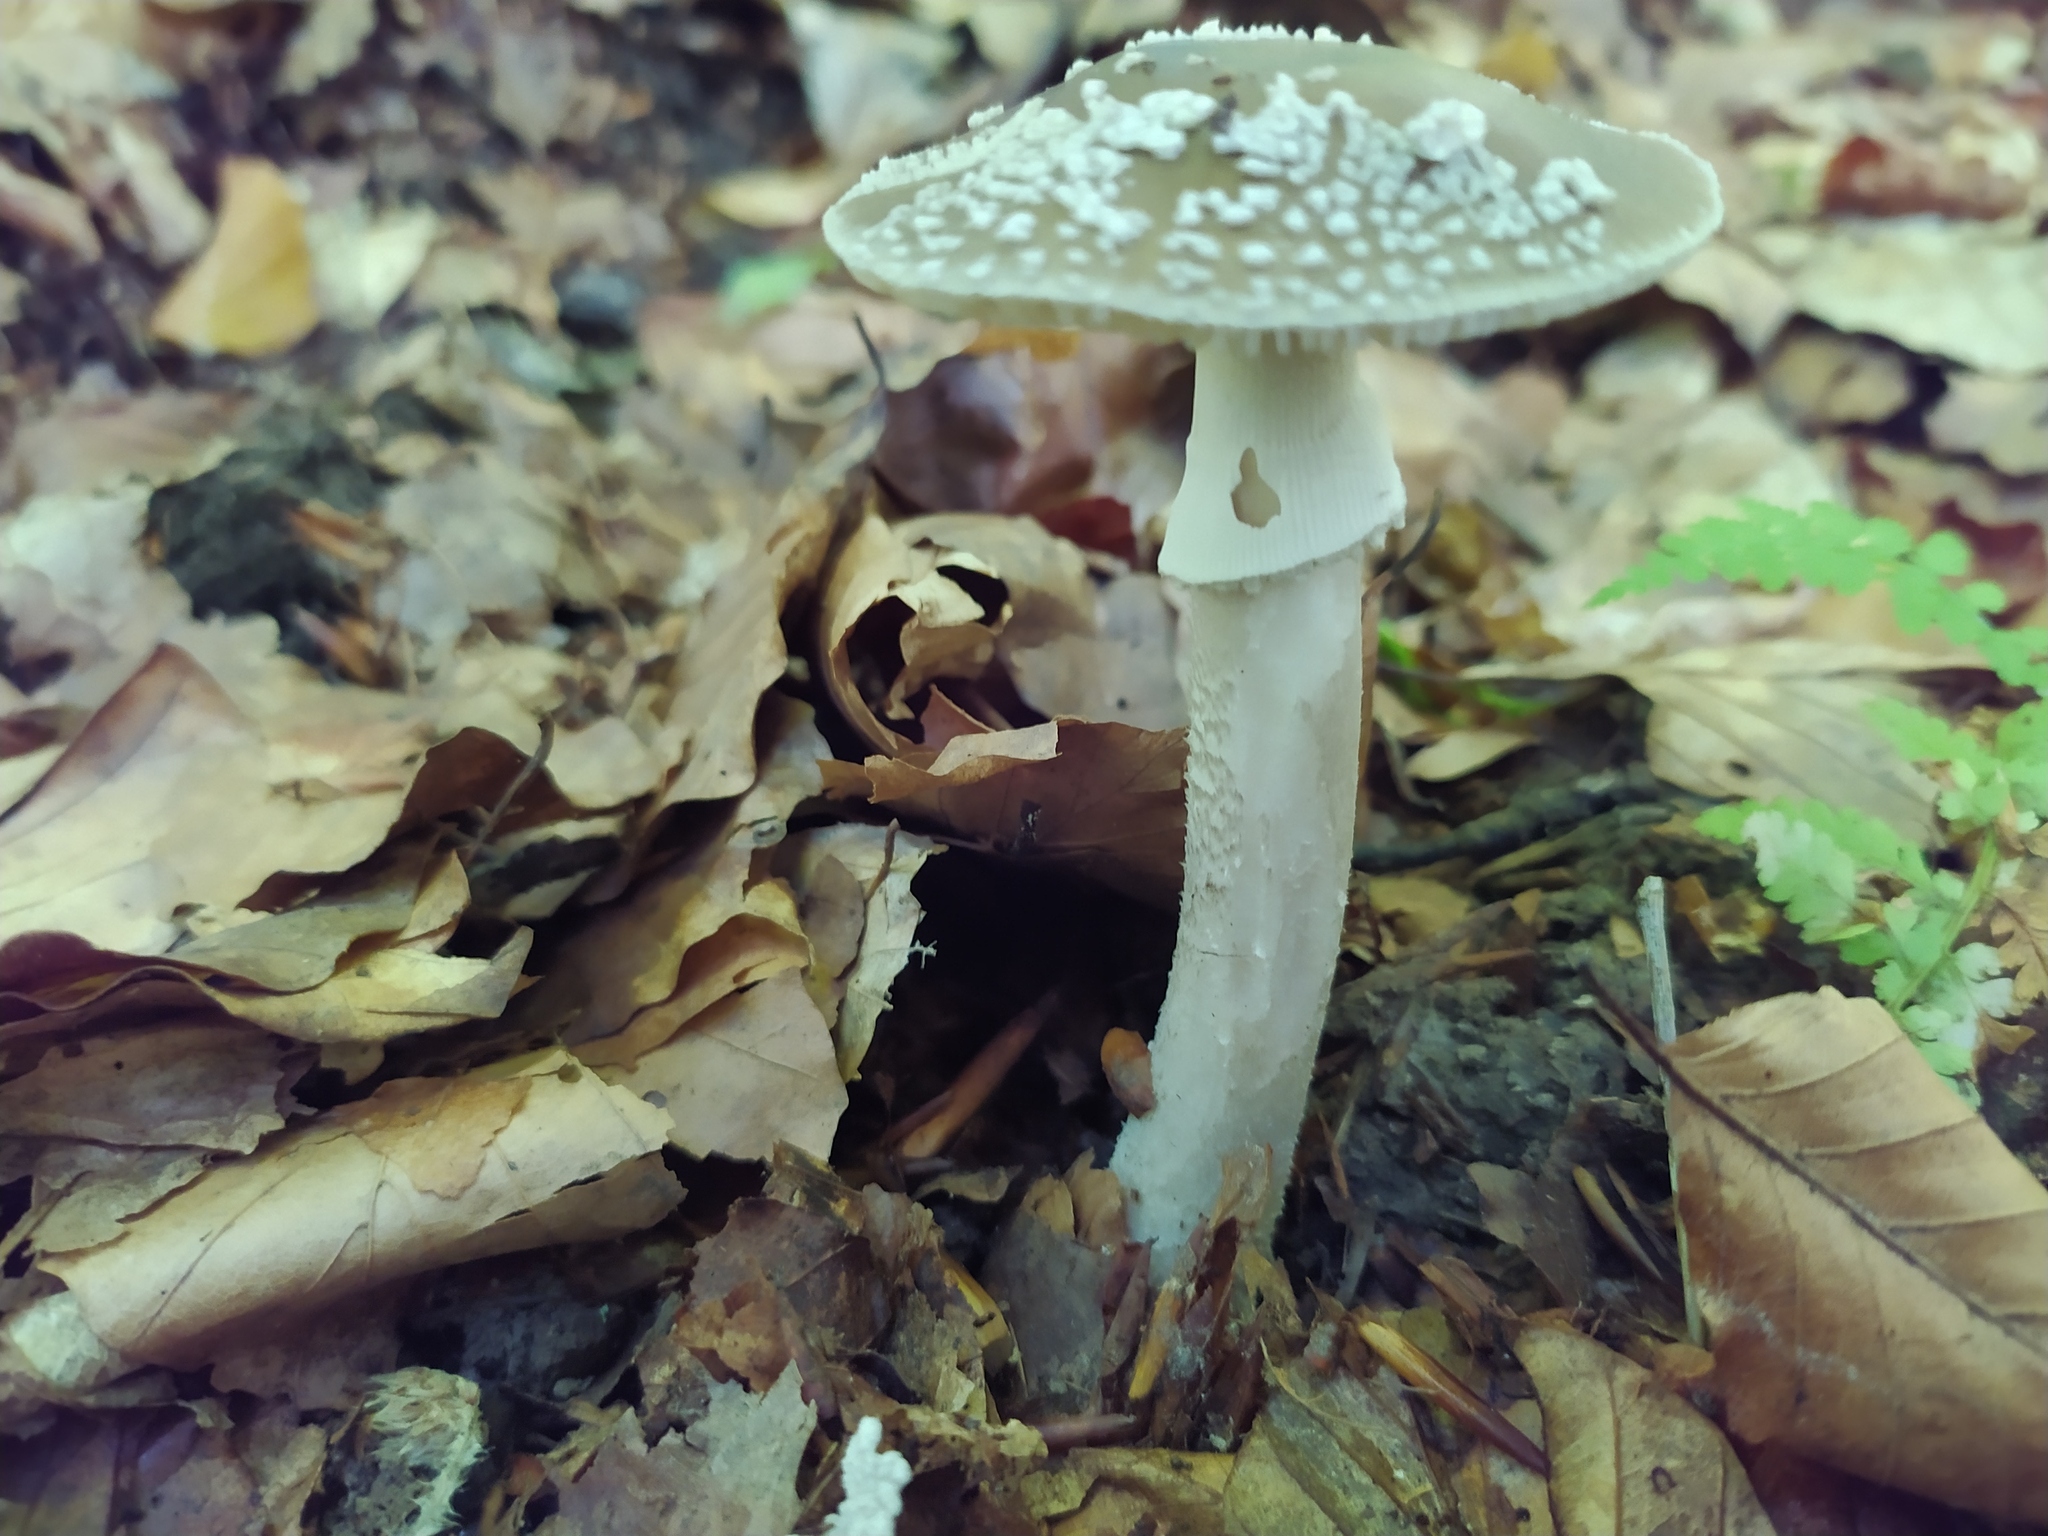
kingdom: Fungi
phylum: Basidiomycota
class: Agaricomycetes
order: Agaricales
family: Amanitaceae
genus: Amanita
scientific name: Amanita excelsa
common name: European false blusher
